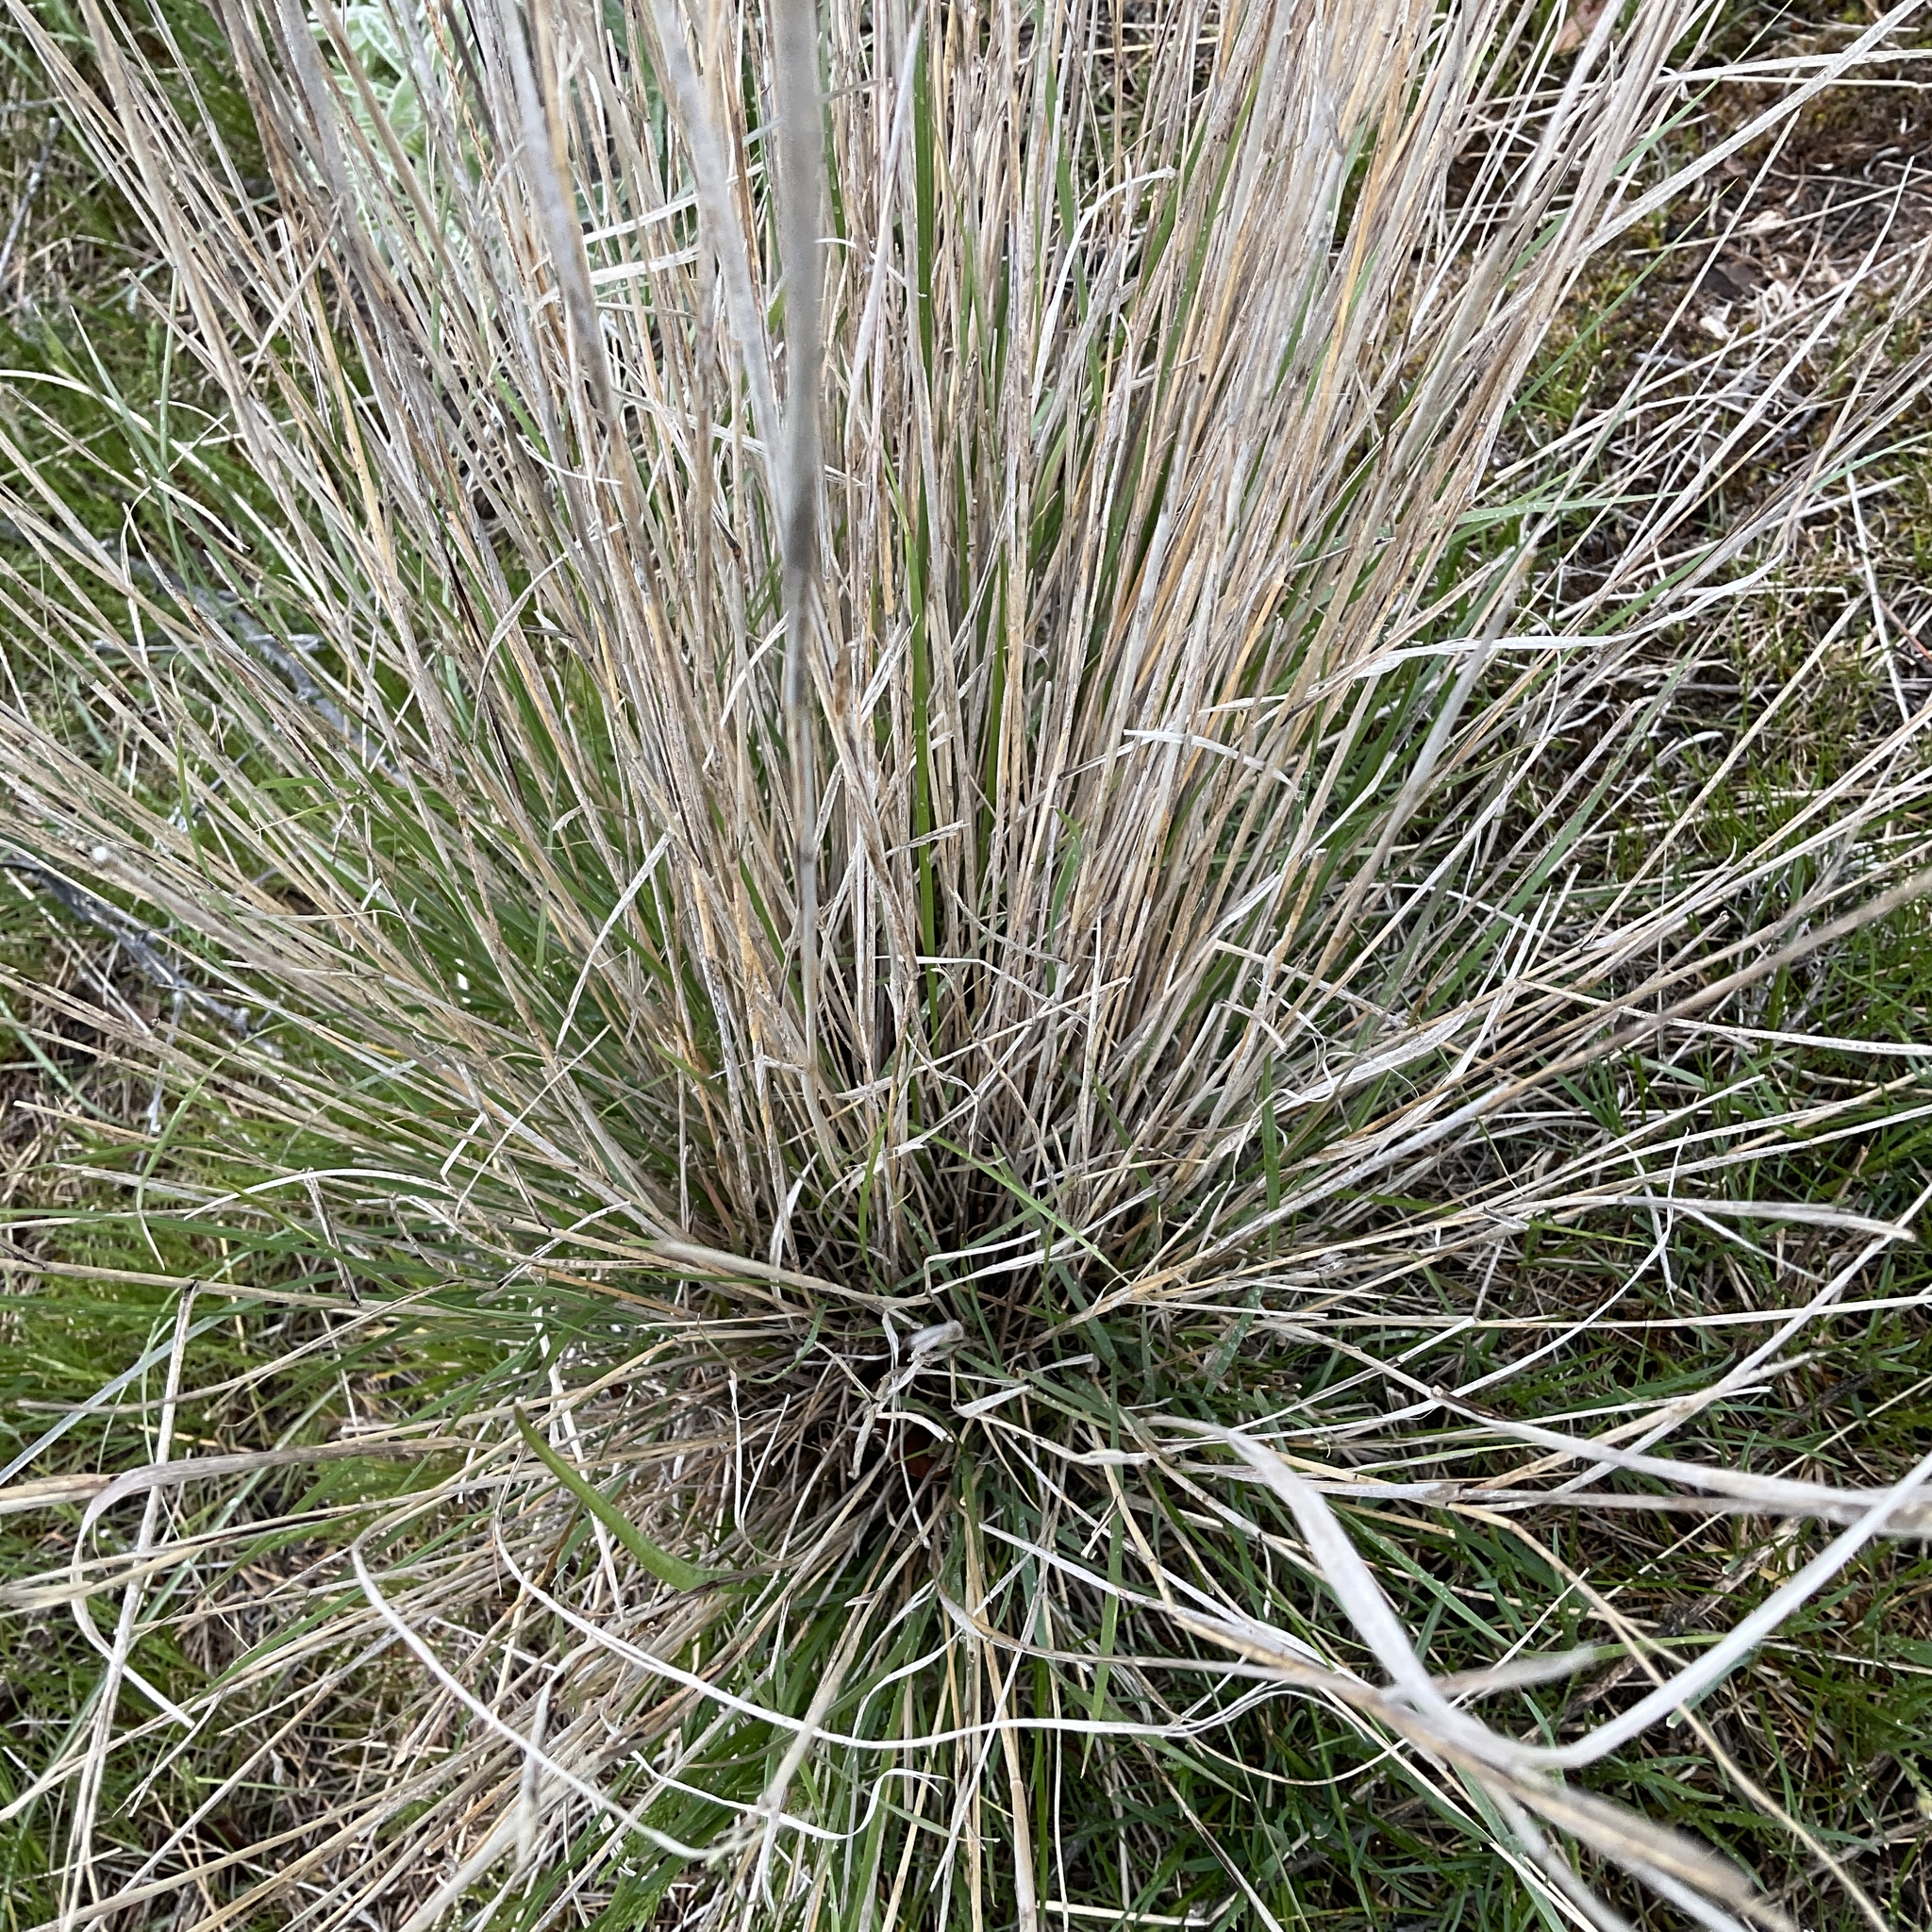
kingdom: Plantae
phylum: Tracheophyta
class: Liliopsida
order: Poales
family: Poaceae
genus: Pseudoroegneria
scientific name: Pseudoroegneria spicata
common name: Bluebunch wheatgrass
